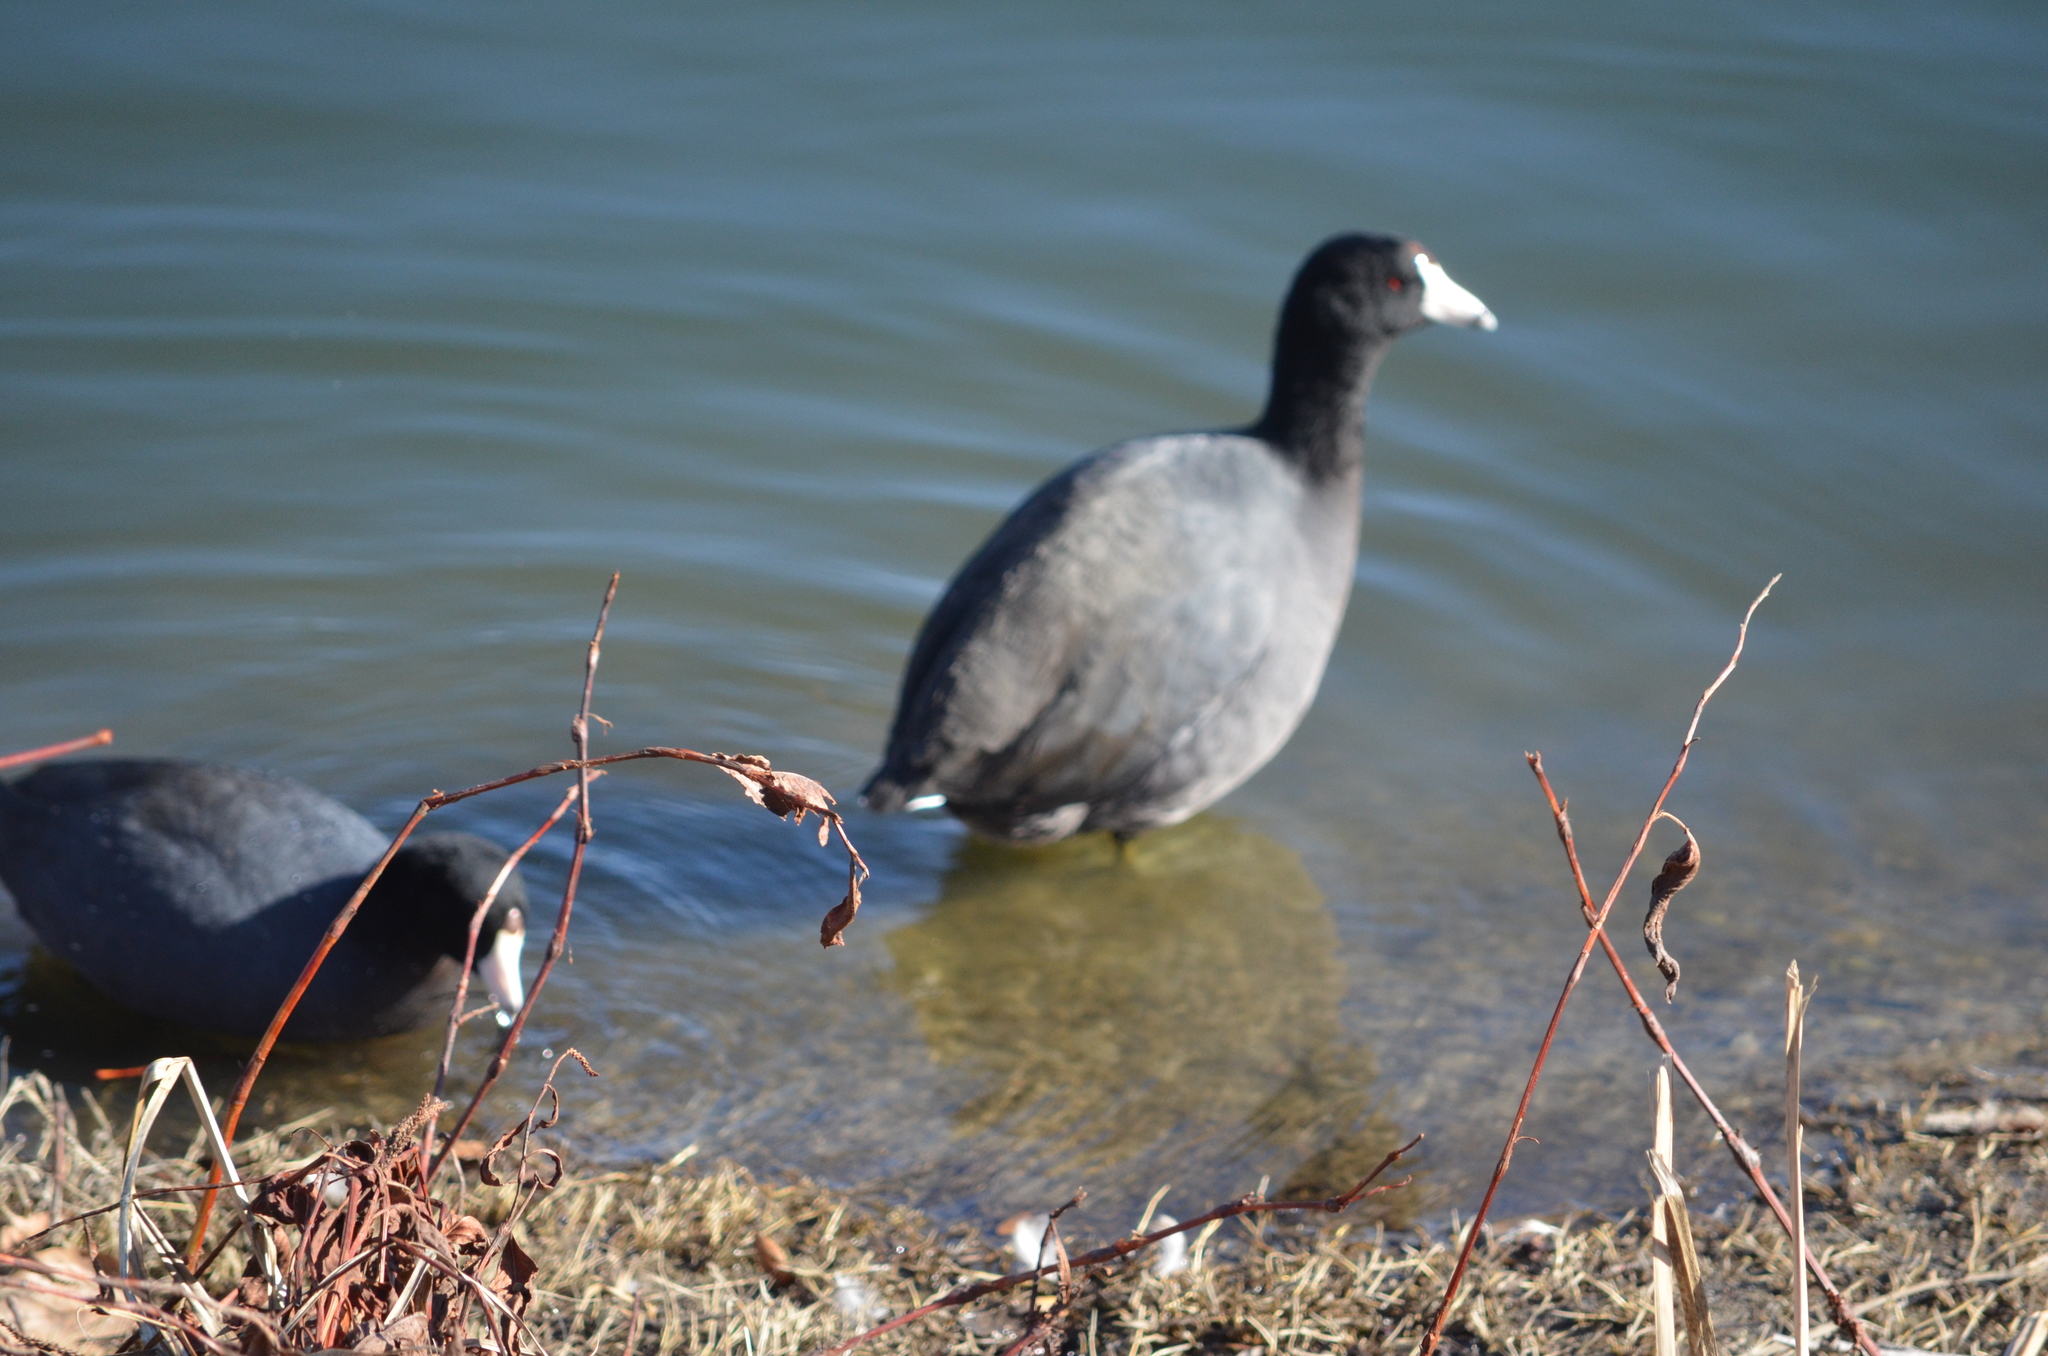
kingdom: Animalia
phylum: Chordata
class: Aves
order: Gruiformes
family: Rallidae
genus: Fulica
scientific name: Fulica americana
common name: American coot
